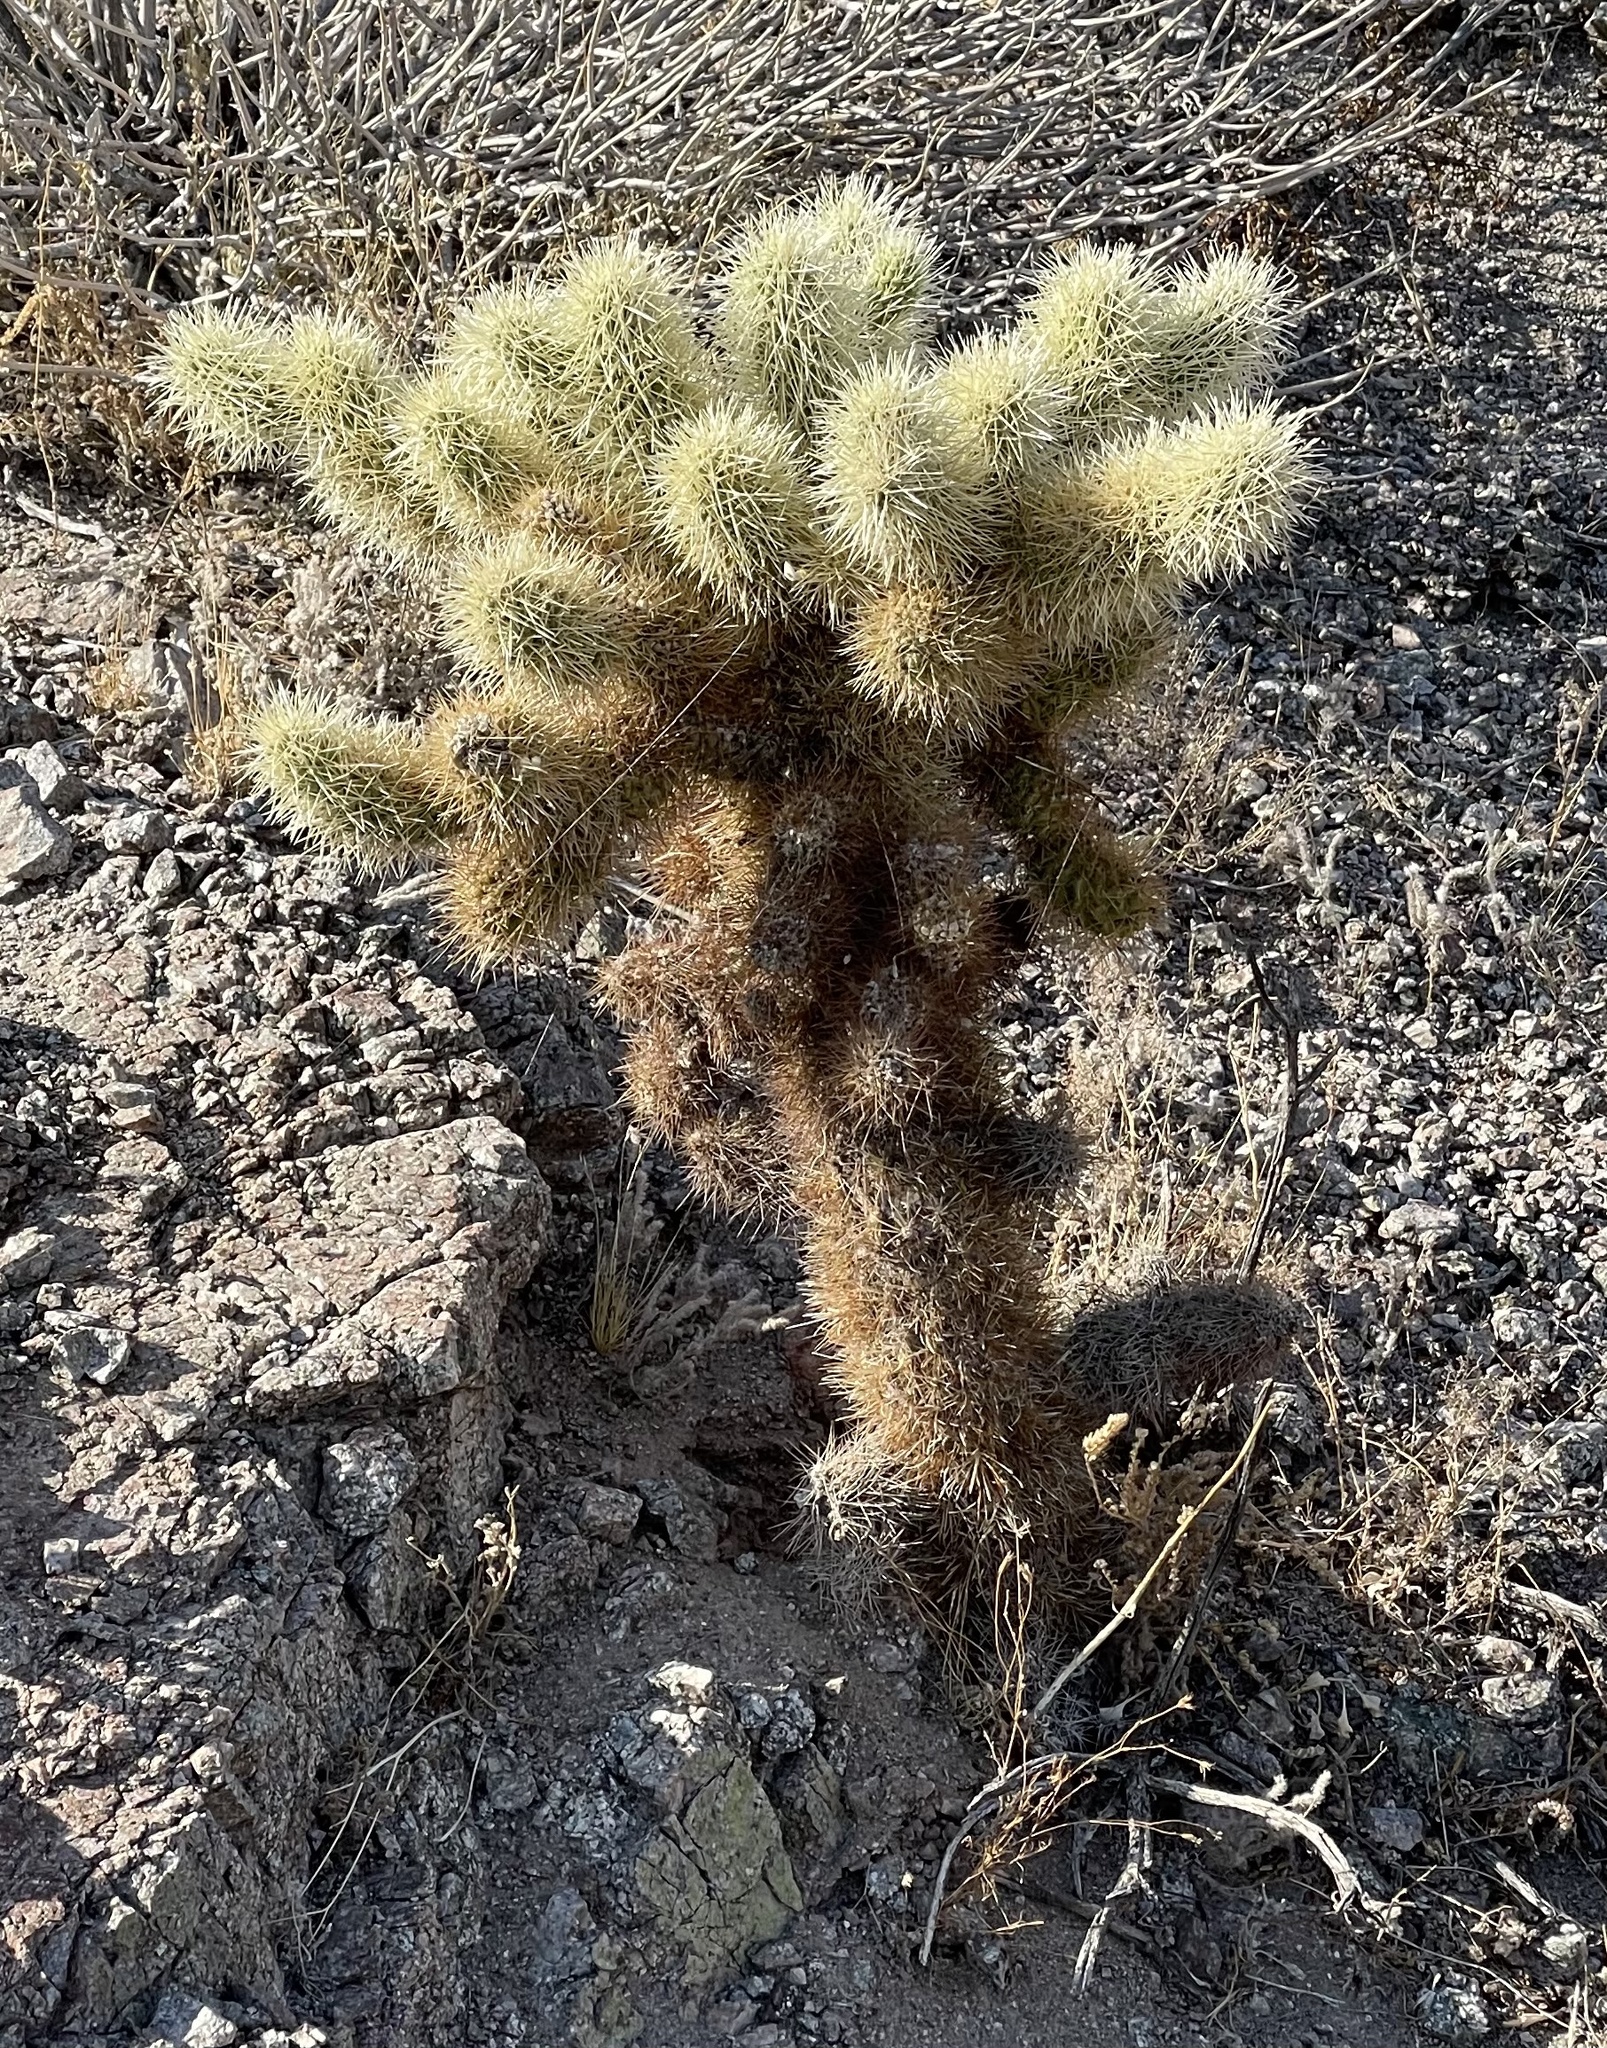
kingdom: Plantae
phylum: Tracheophyta
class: Magnoliopsida
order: Caryophyllales
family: Cactaceae
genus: Cylindropuntia
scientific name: Cylindropuntia fosbergii
